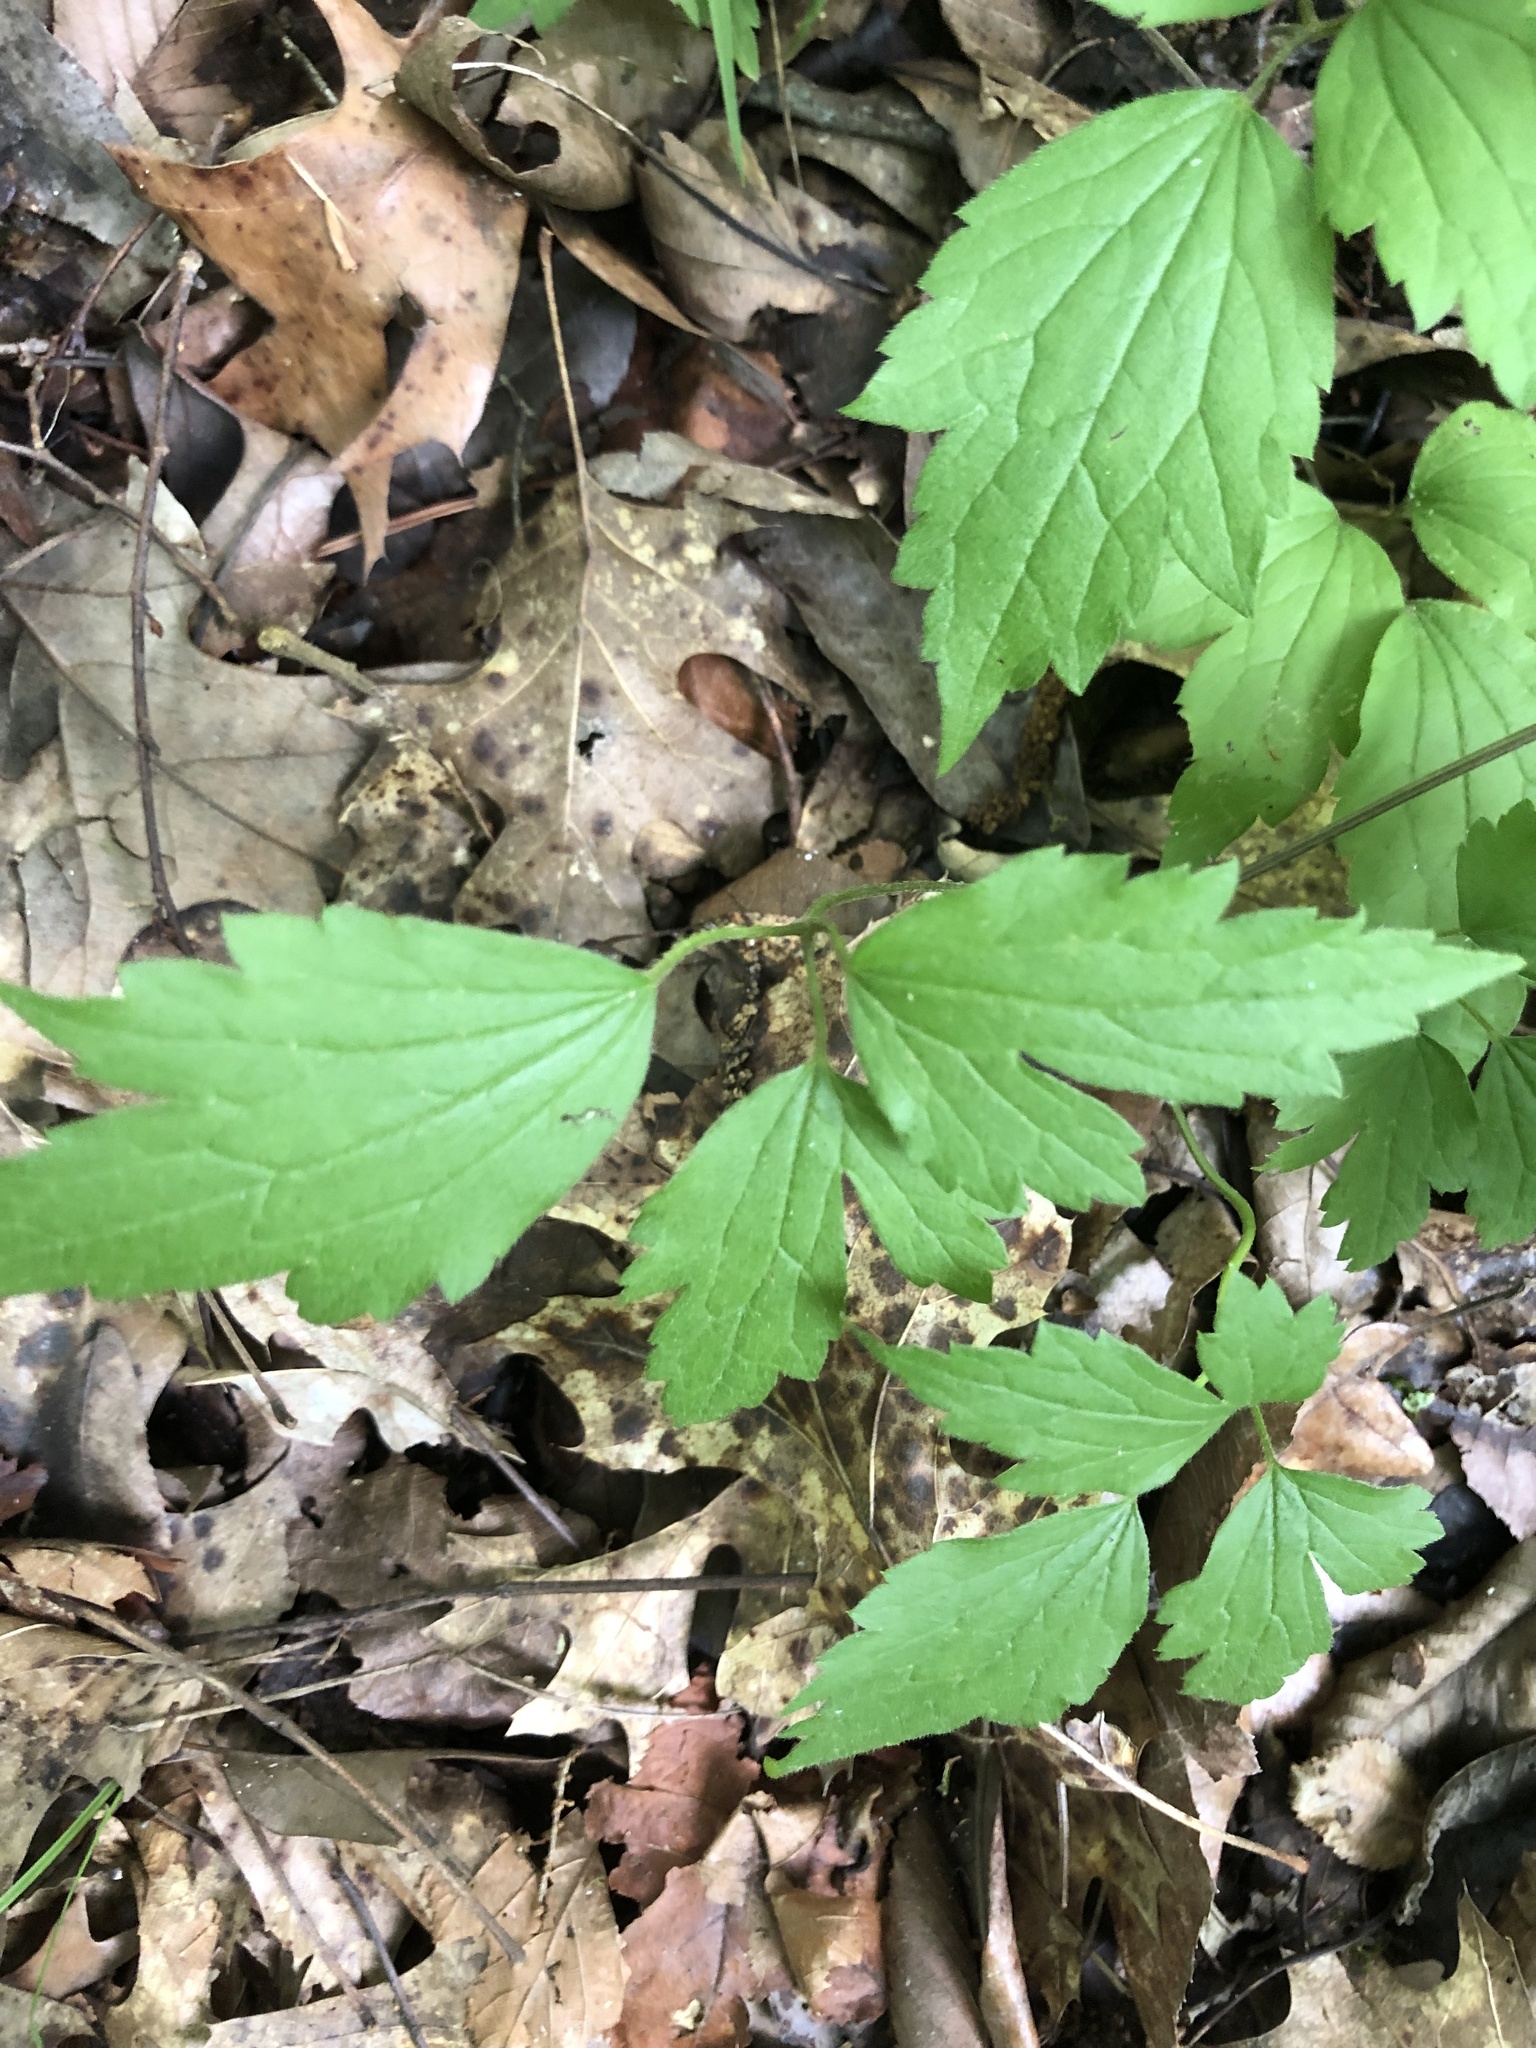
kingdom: Plantae
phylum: Tracheophyta
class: Magnoliopsida
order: Ranunculales
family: Ranunculaceae
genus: Clematis
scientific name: Clematis catesbyana
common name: Virgin's bower
